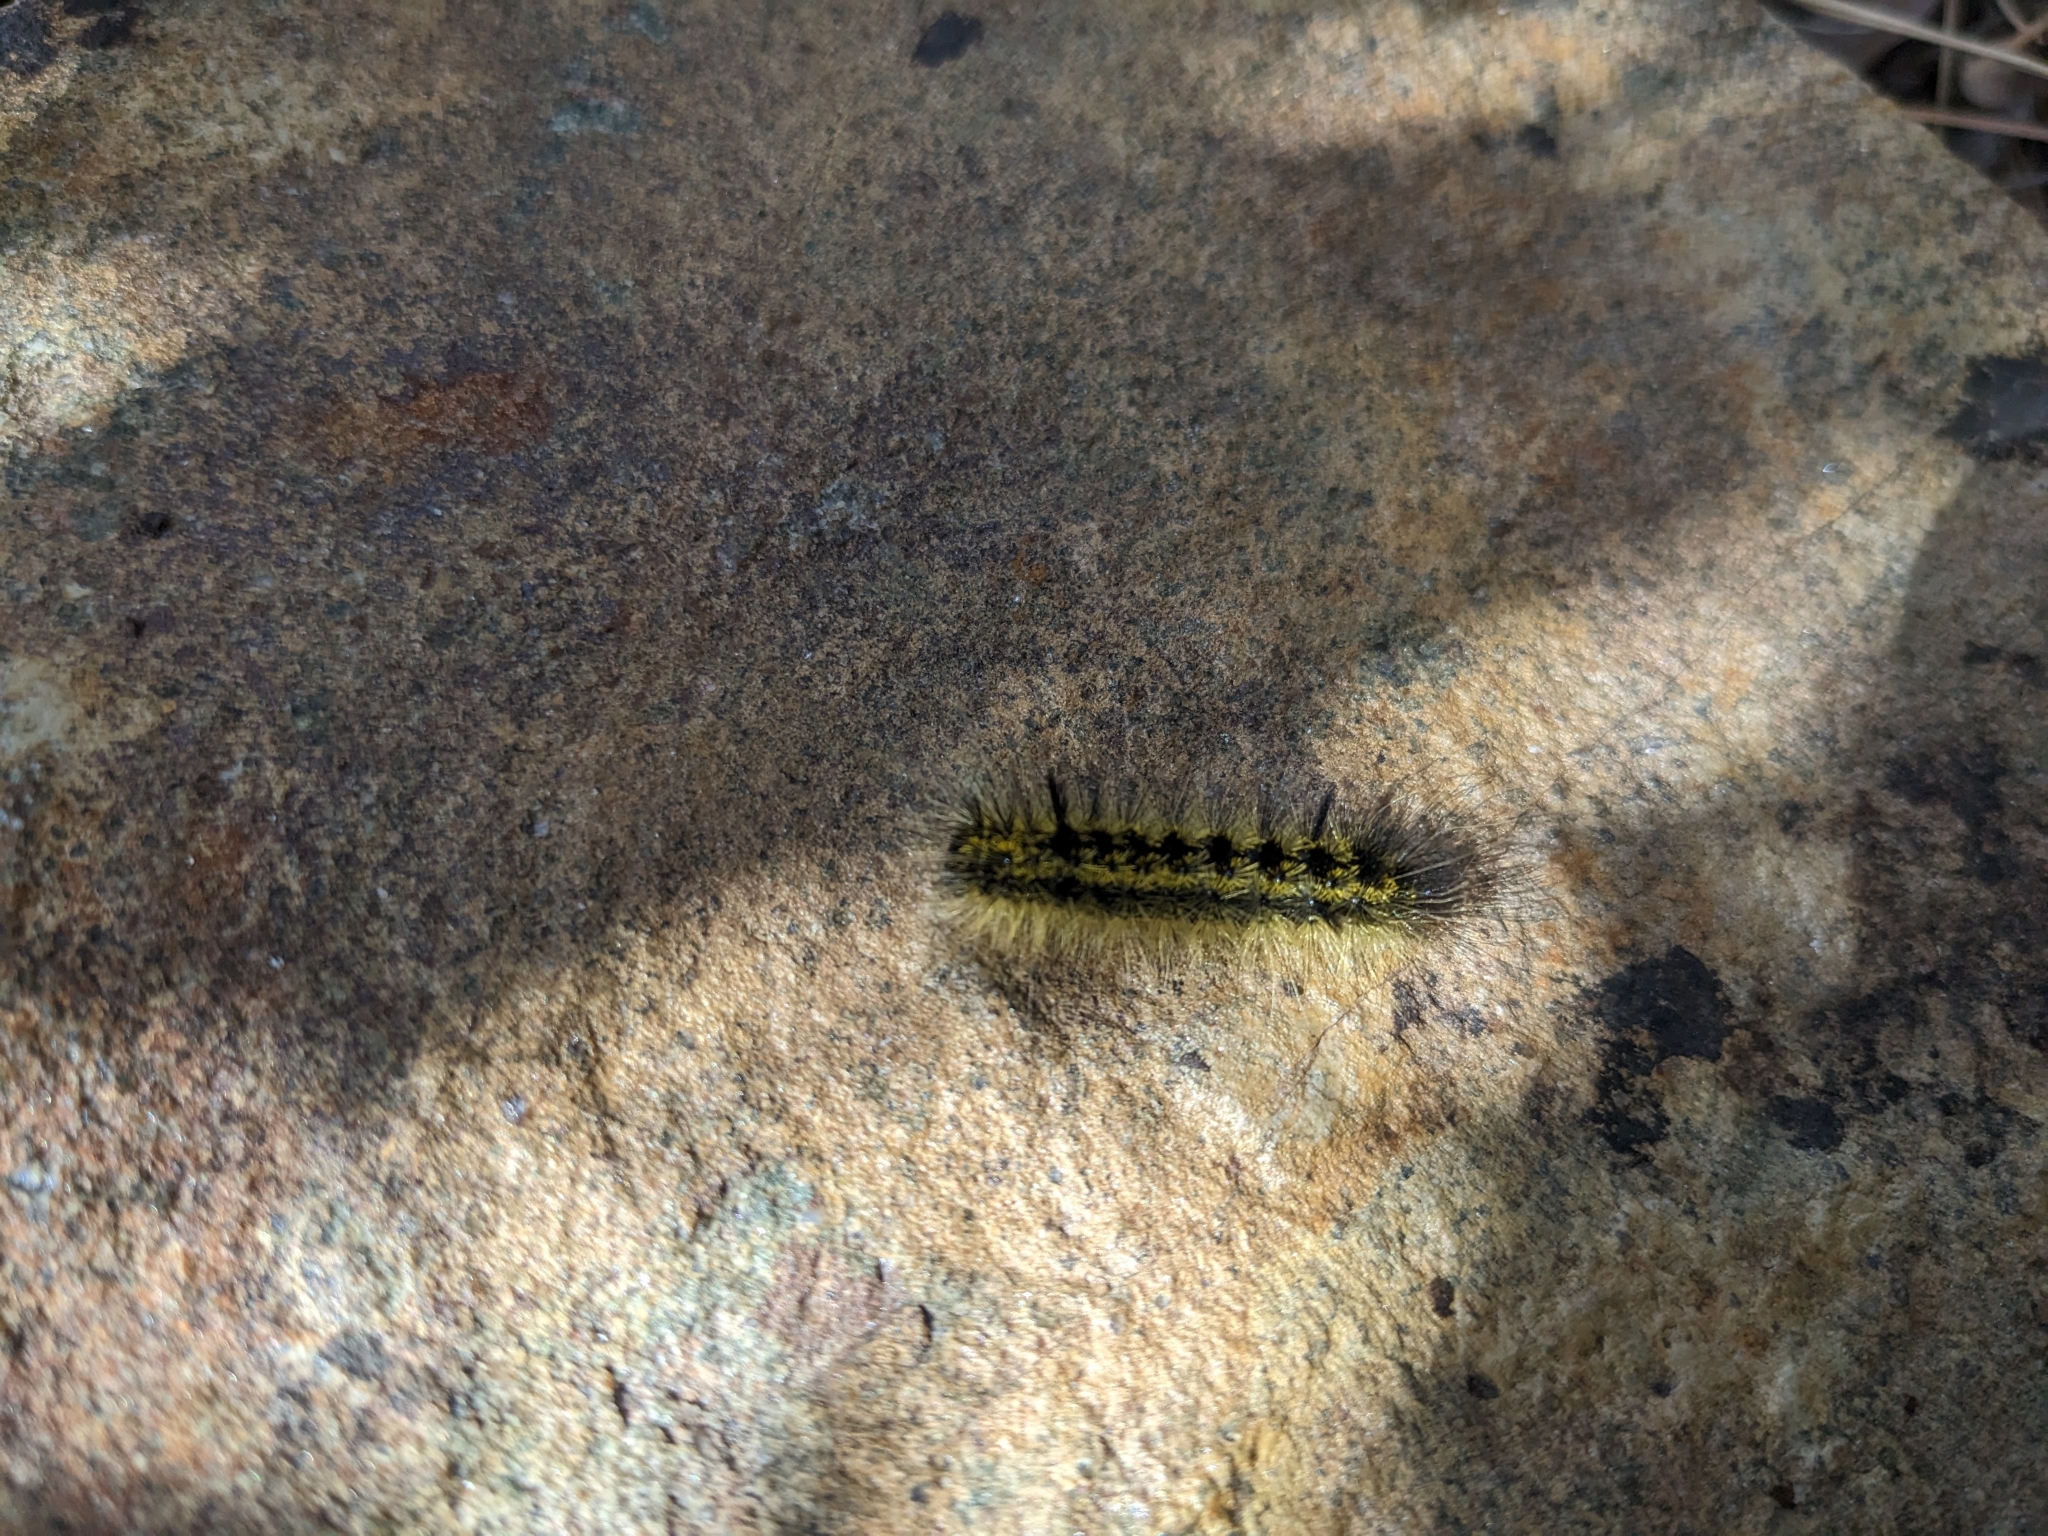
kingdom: Animalia
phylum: Arthropoda
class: Insecta
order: Lepidoptera
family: Erebidae
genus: Lophocampa
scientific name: Lophocampa argentata
